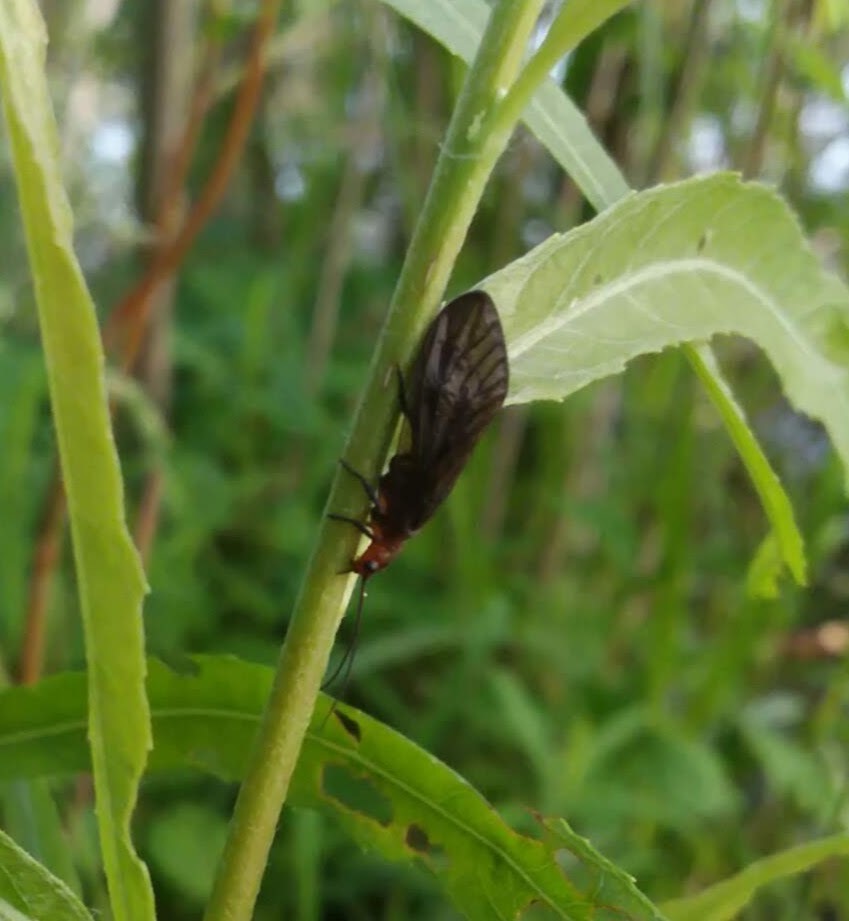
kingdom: Animalia
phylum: Arthropoda
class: Insecta
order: Megaloptera
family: Sialidae
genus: Protosialis
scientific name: Protosialis americana
